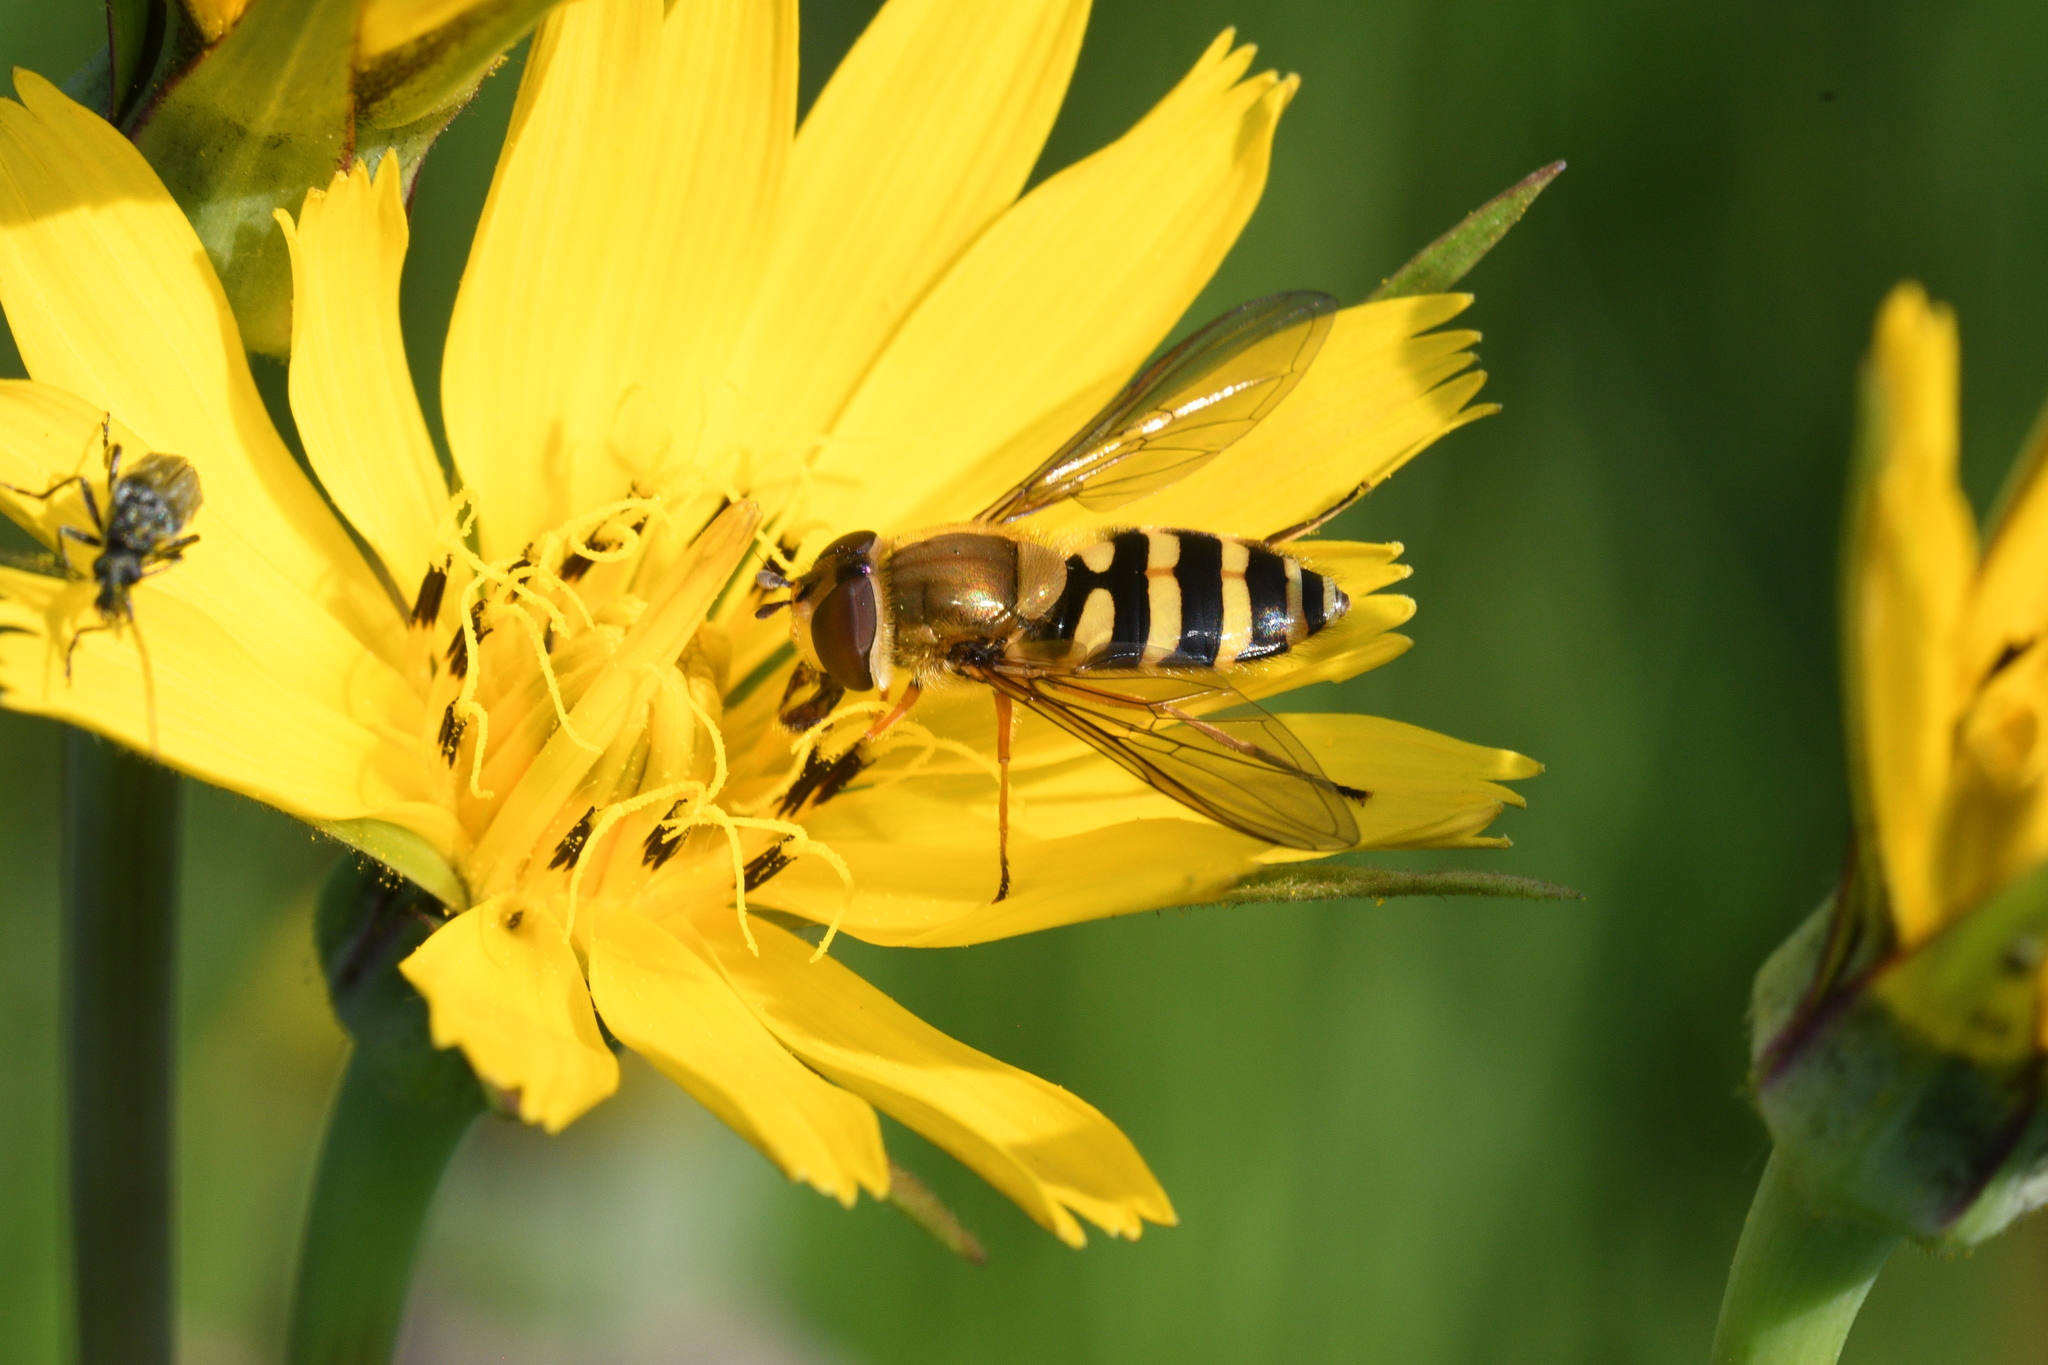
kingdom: Animalia
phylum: Arthropoda
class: Insecta
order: Diptera
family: Syrphidae
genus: Syrphus
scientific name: Syrphus ribesii
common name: Common flower fly
